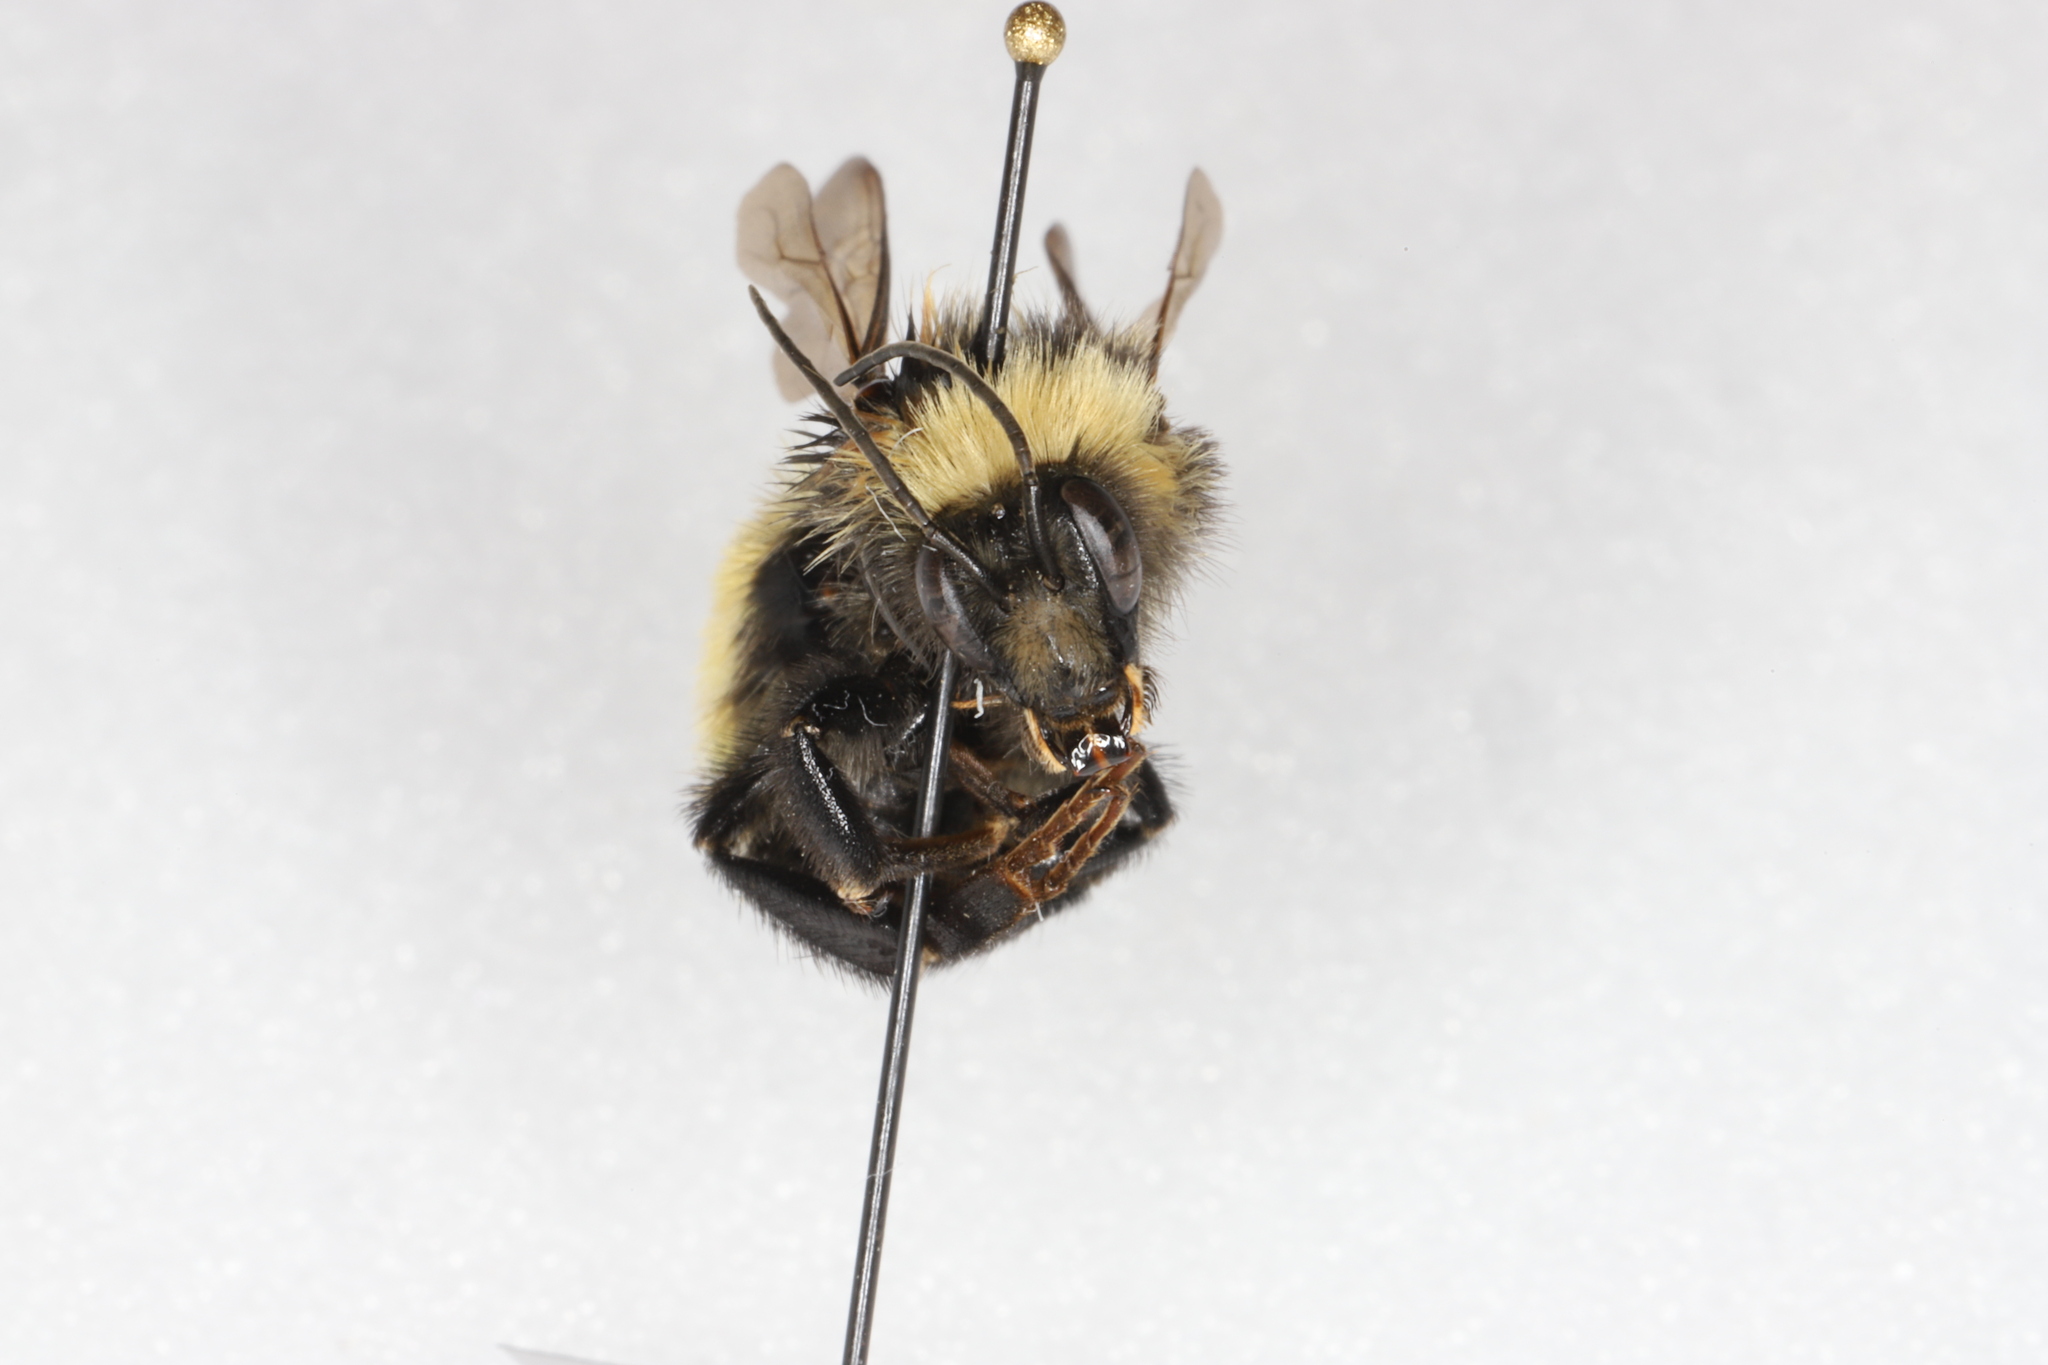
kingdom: Animalia
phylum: Arthropoda
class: Insecta
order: Hymenoptera
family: Apidae
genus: Bombus
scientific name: Bombus borealis
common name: Northern amber bumble bee
